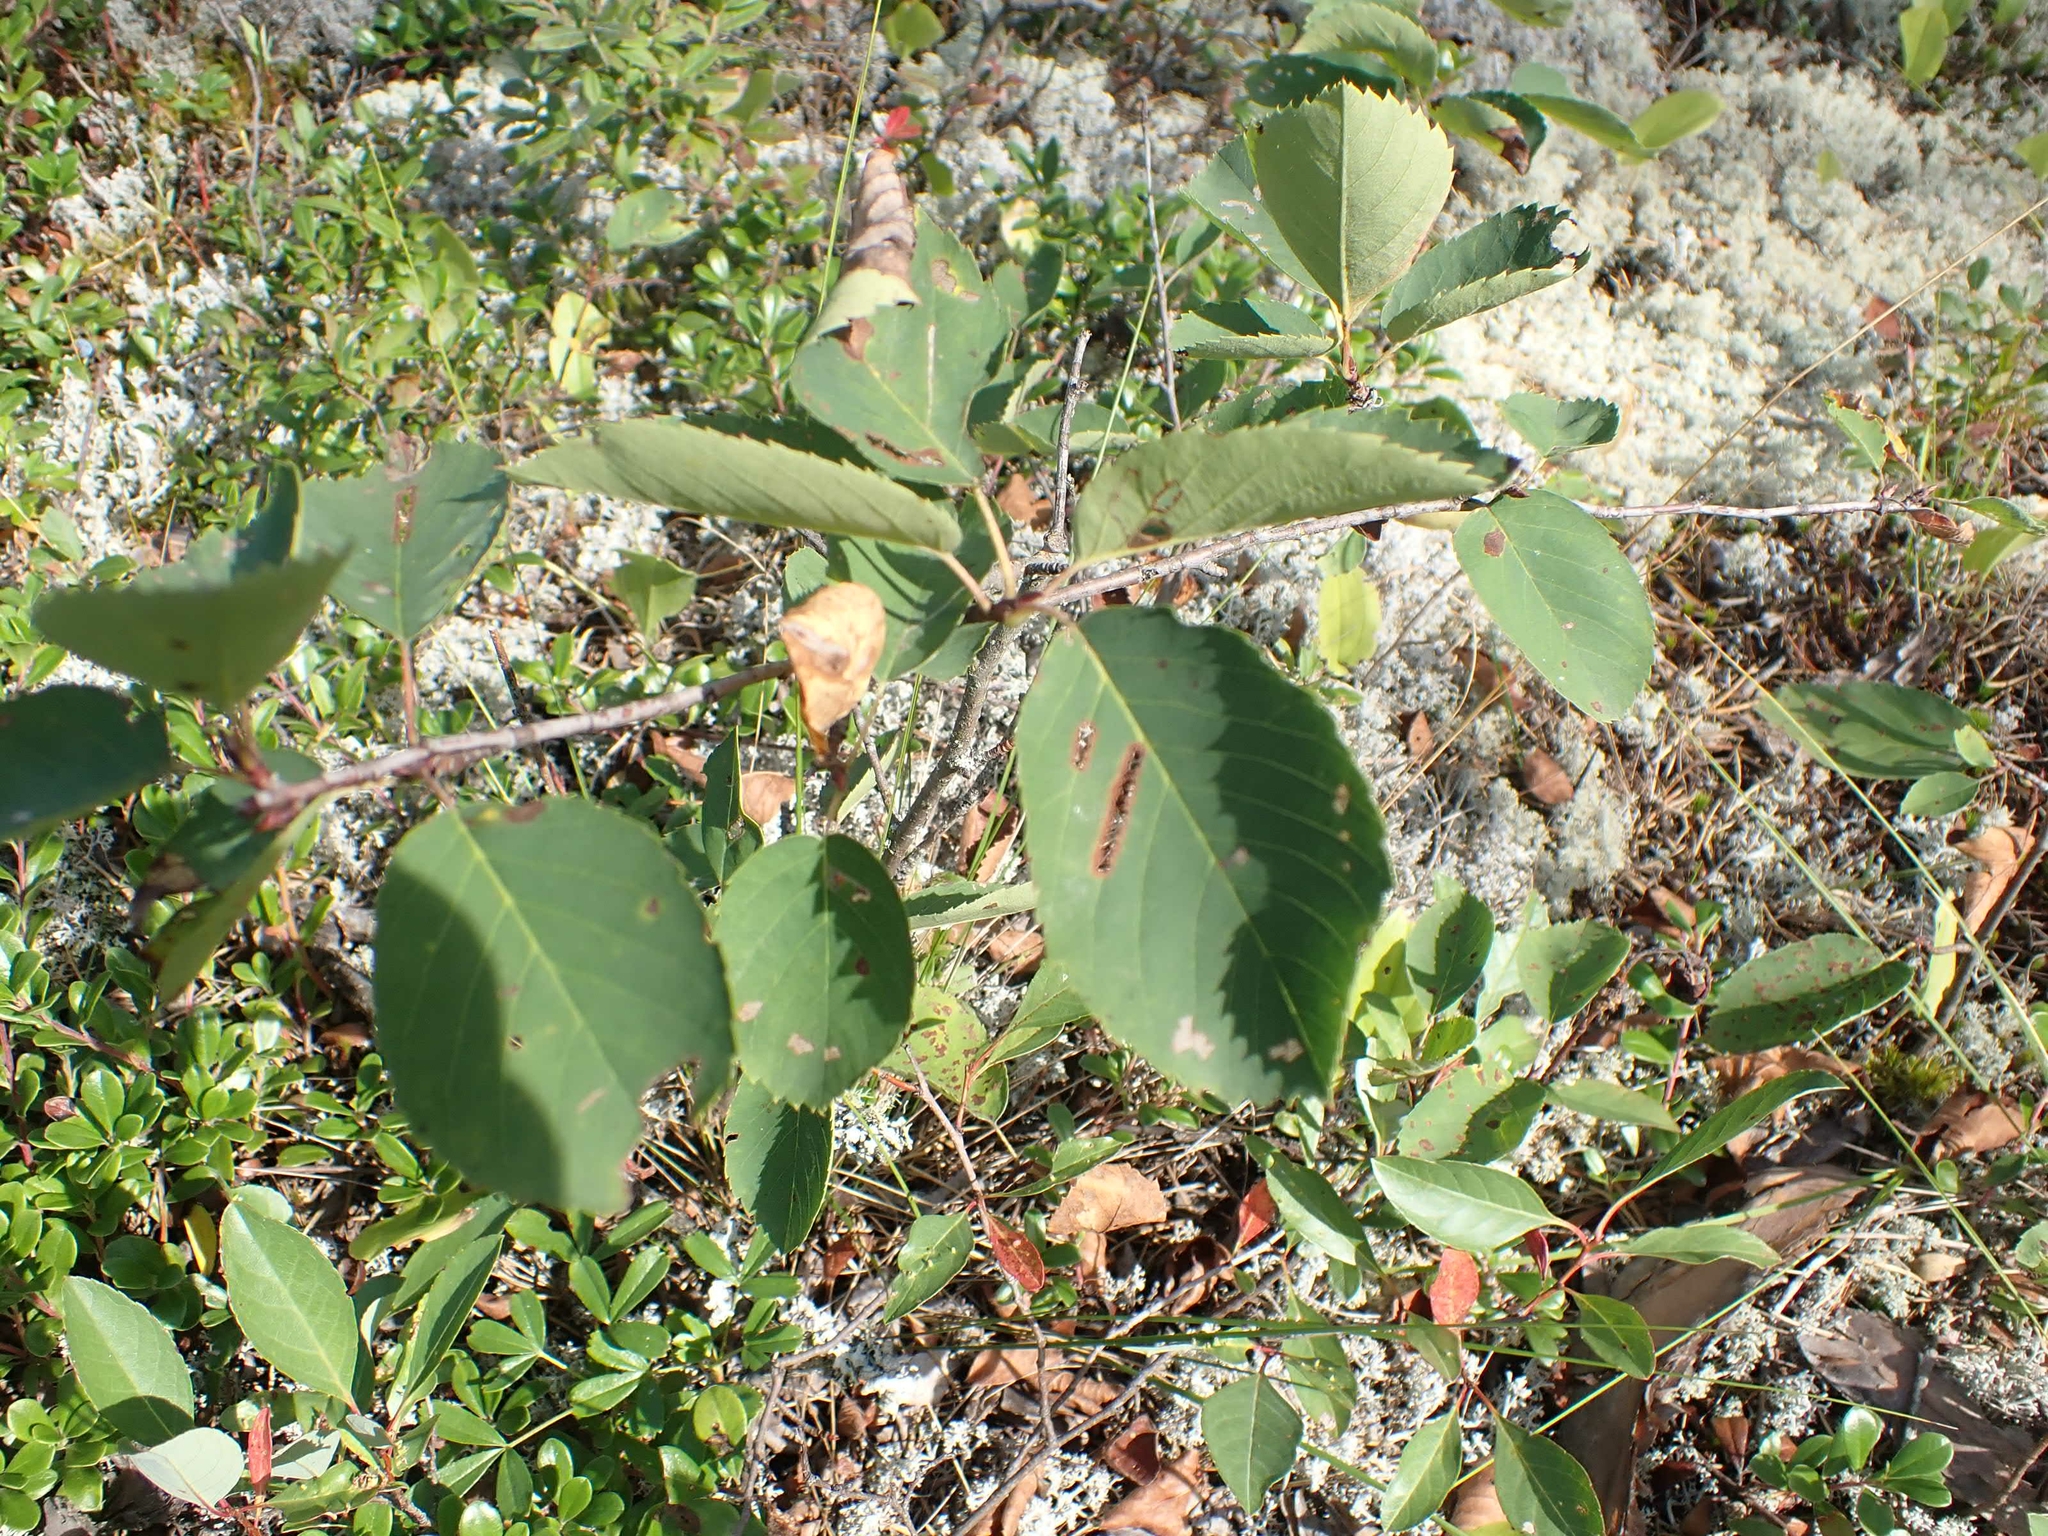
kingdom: Plantae
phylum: Tracheophyta
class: Magnoliopsida
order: Rosales
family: Rosaceae
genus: Amelanchier
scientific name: Amelanchier alnifolia
